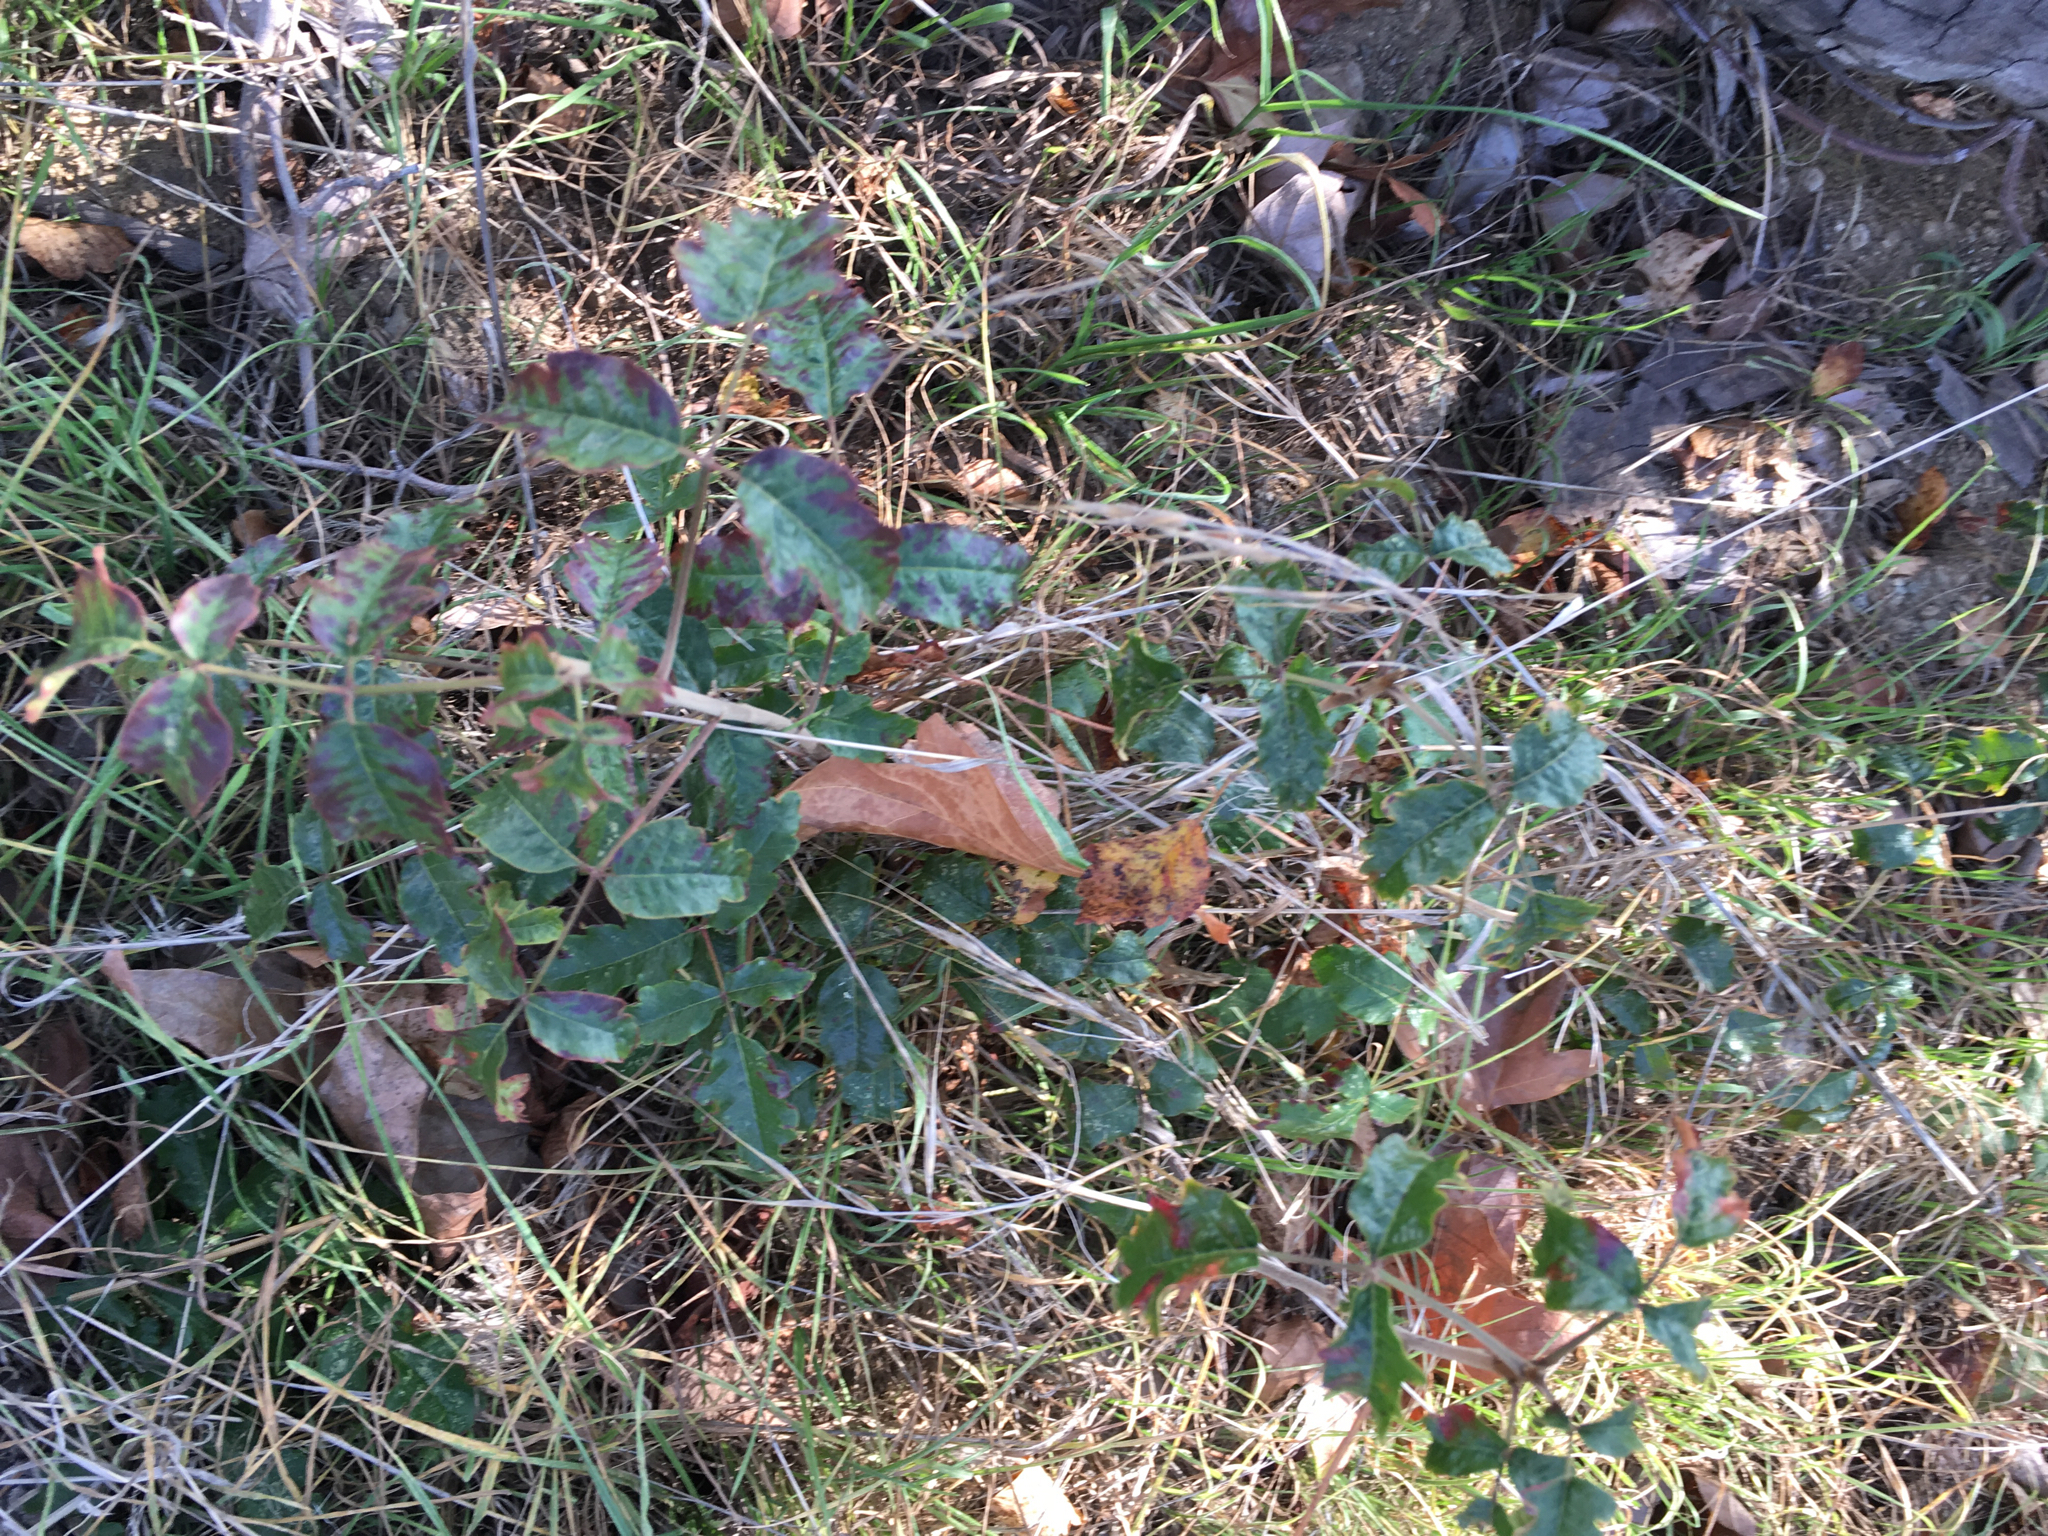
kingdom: Plantae
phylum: Tracheophyta
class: Magnoliopsida
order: Sapindales
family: Anacardiaceae
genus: Toxicodendron
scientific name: Toxicodendron diversilobum
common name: Pacific poison-oak
